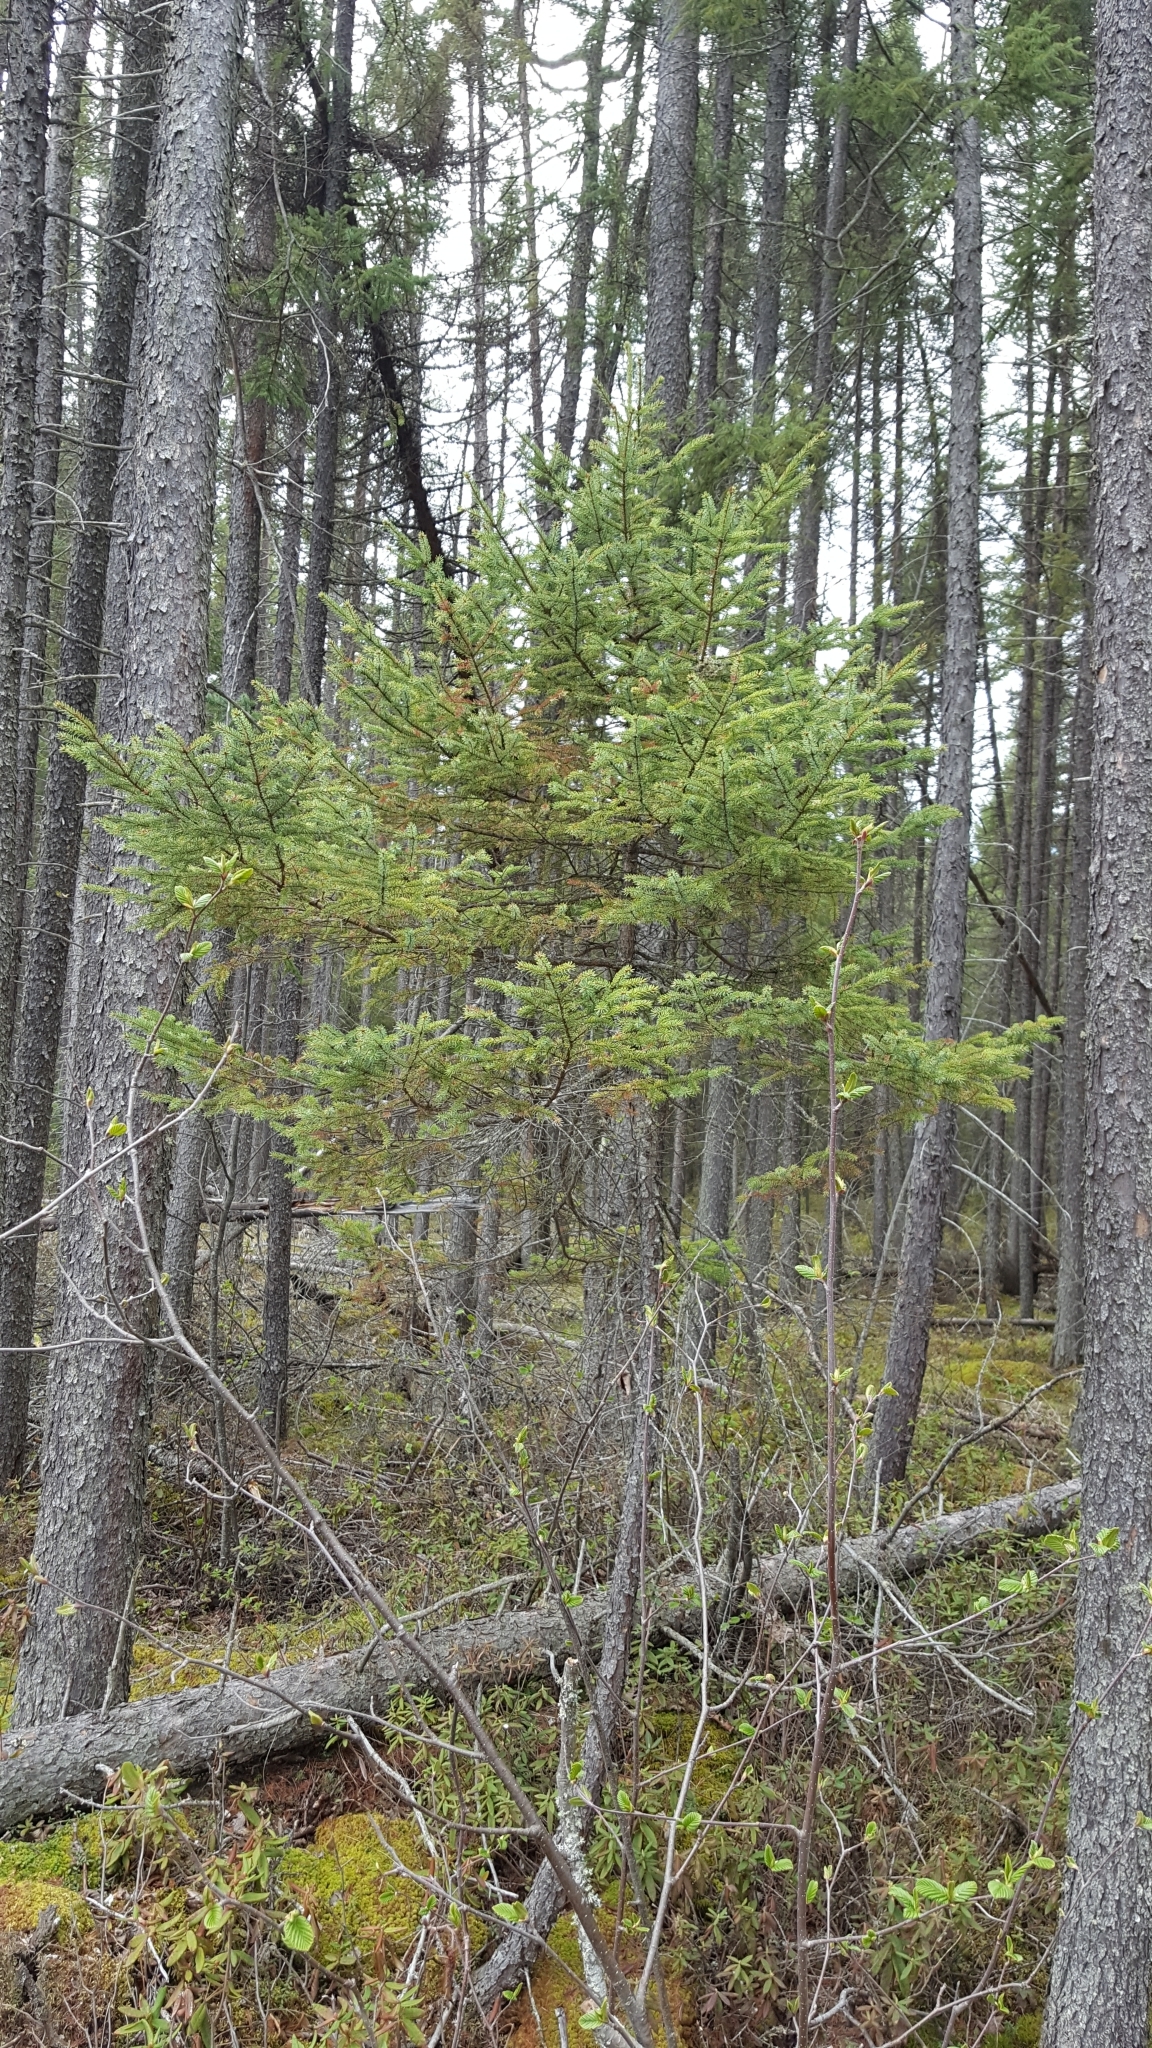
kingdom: Plantae
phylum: Tracheophyta
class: Pinopsida
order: Pinales
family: Pinaceae
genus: Picea
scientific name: Picea mariana
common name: Black spruce
